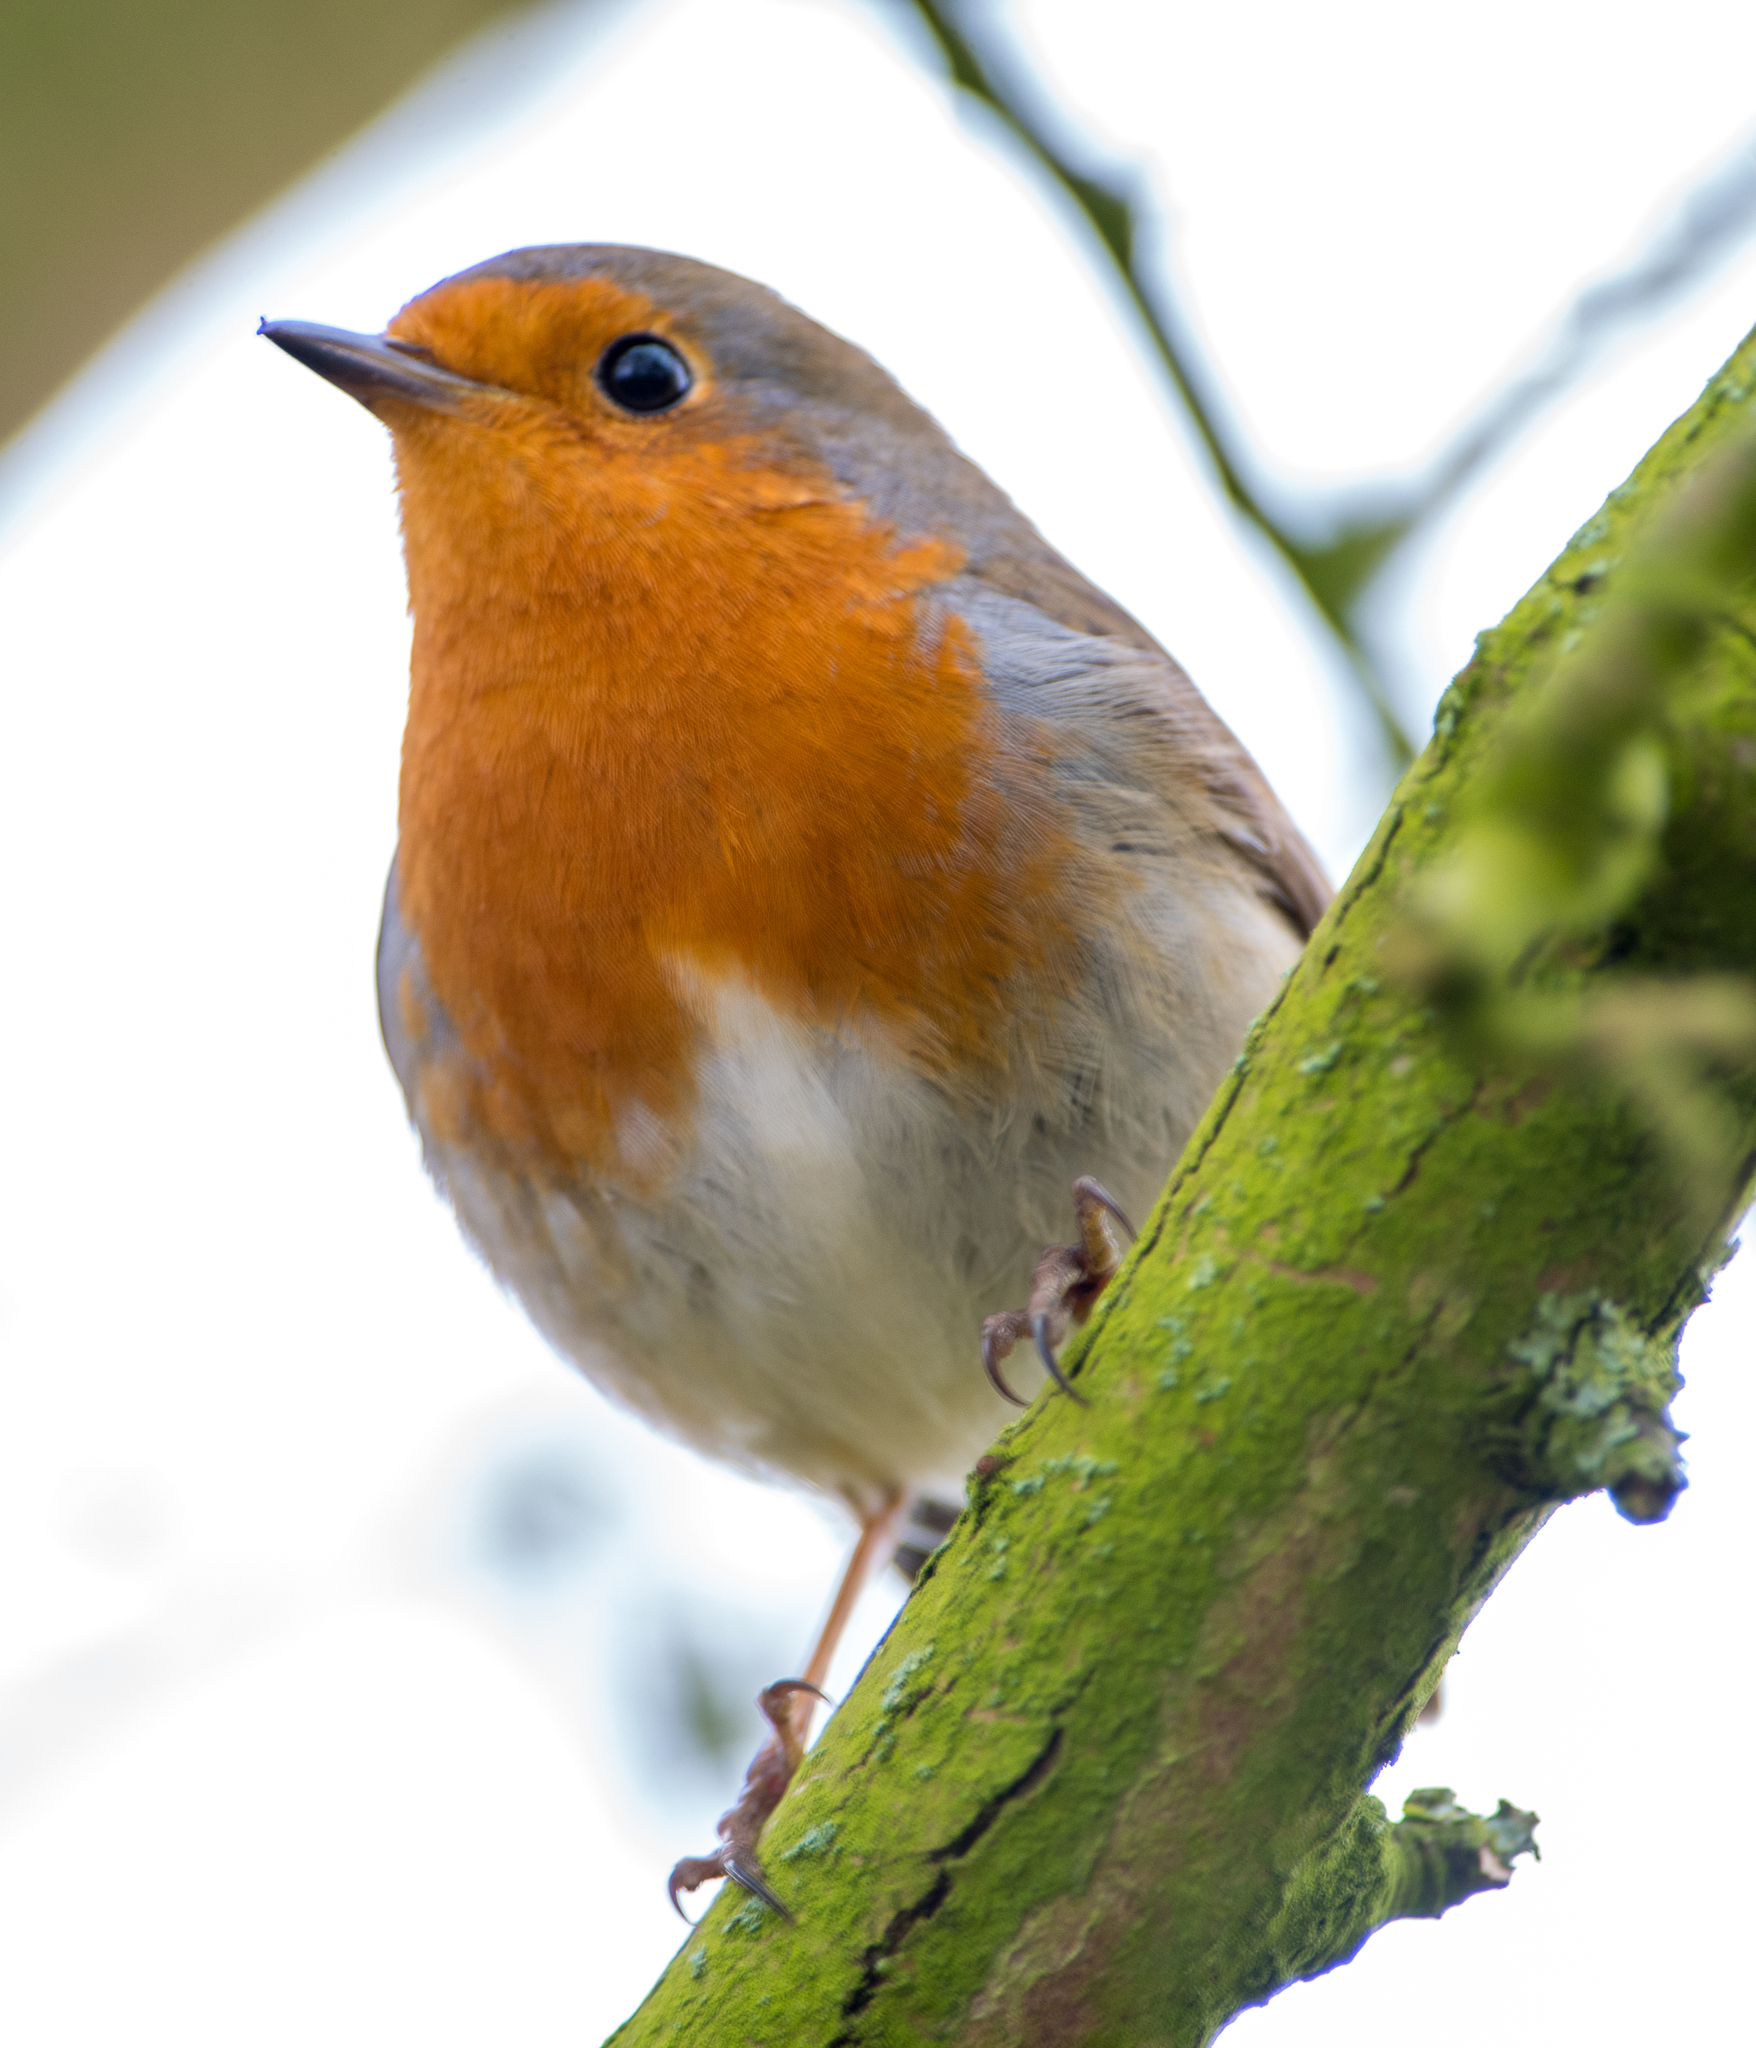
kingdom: Animalia
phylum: Chordata
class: Aves
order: Passeriformes
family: Muscicapidae
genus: Erithacus
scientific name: Erithacus rubecula
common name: European robin
